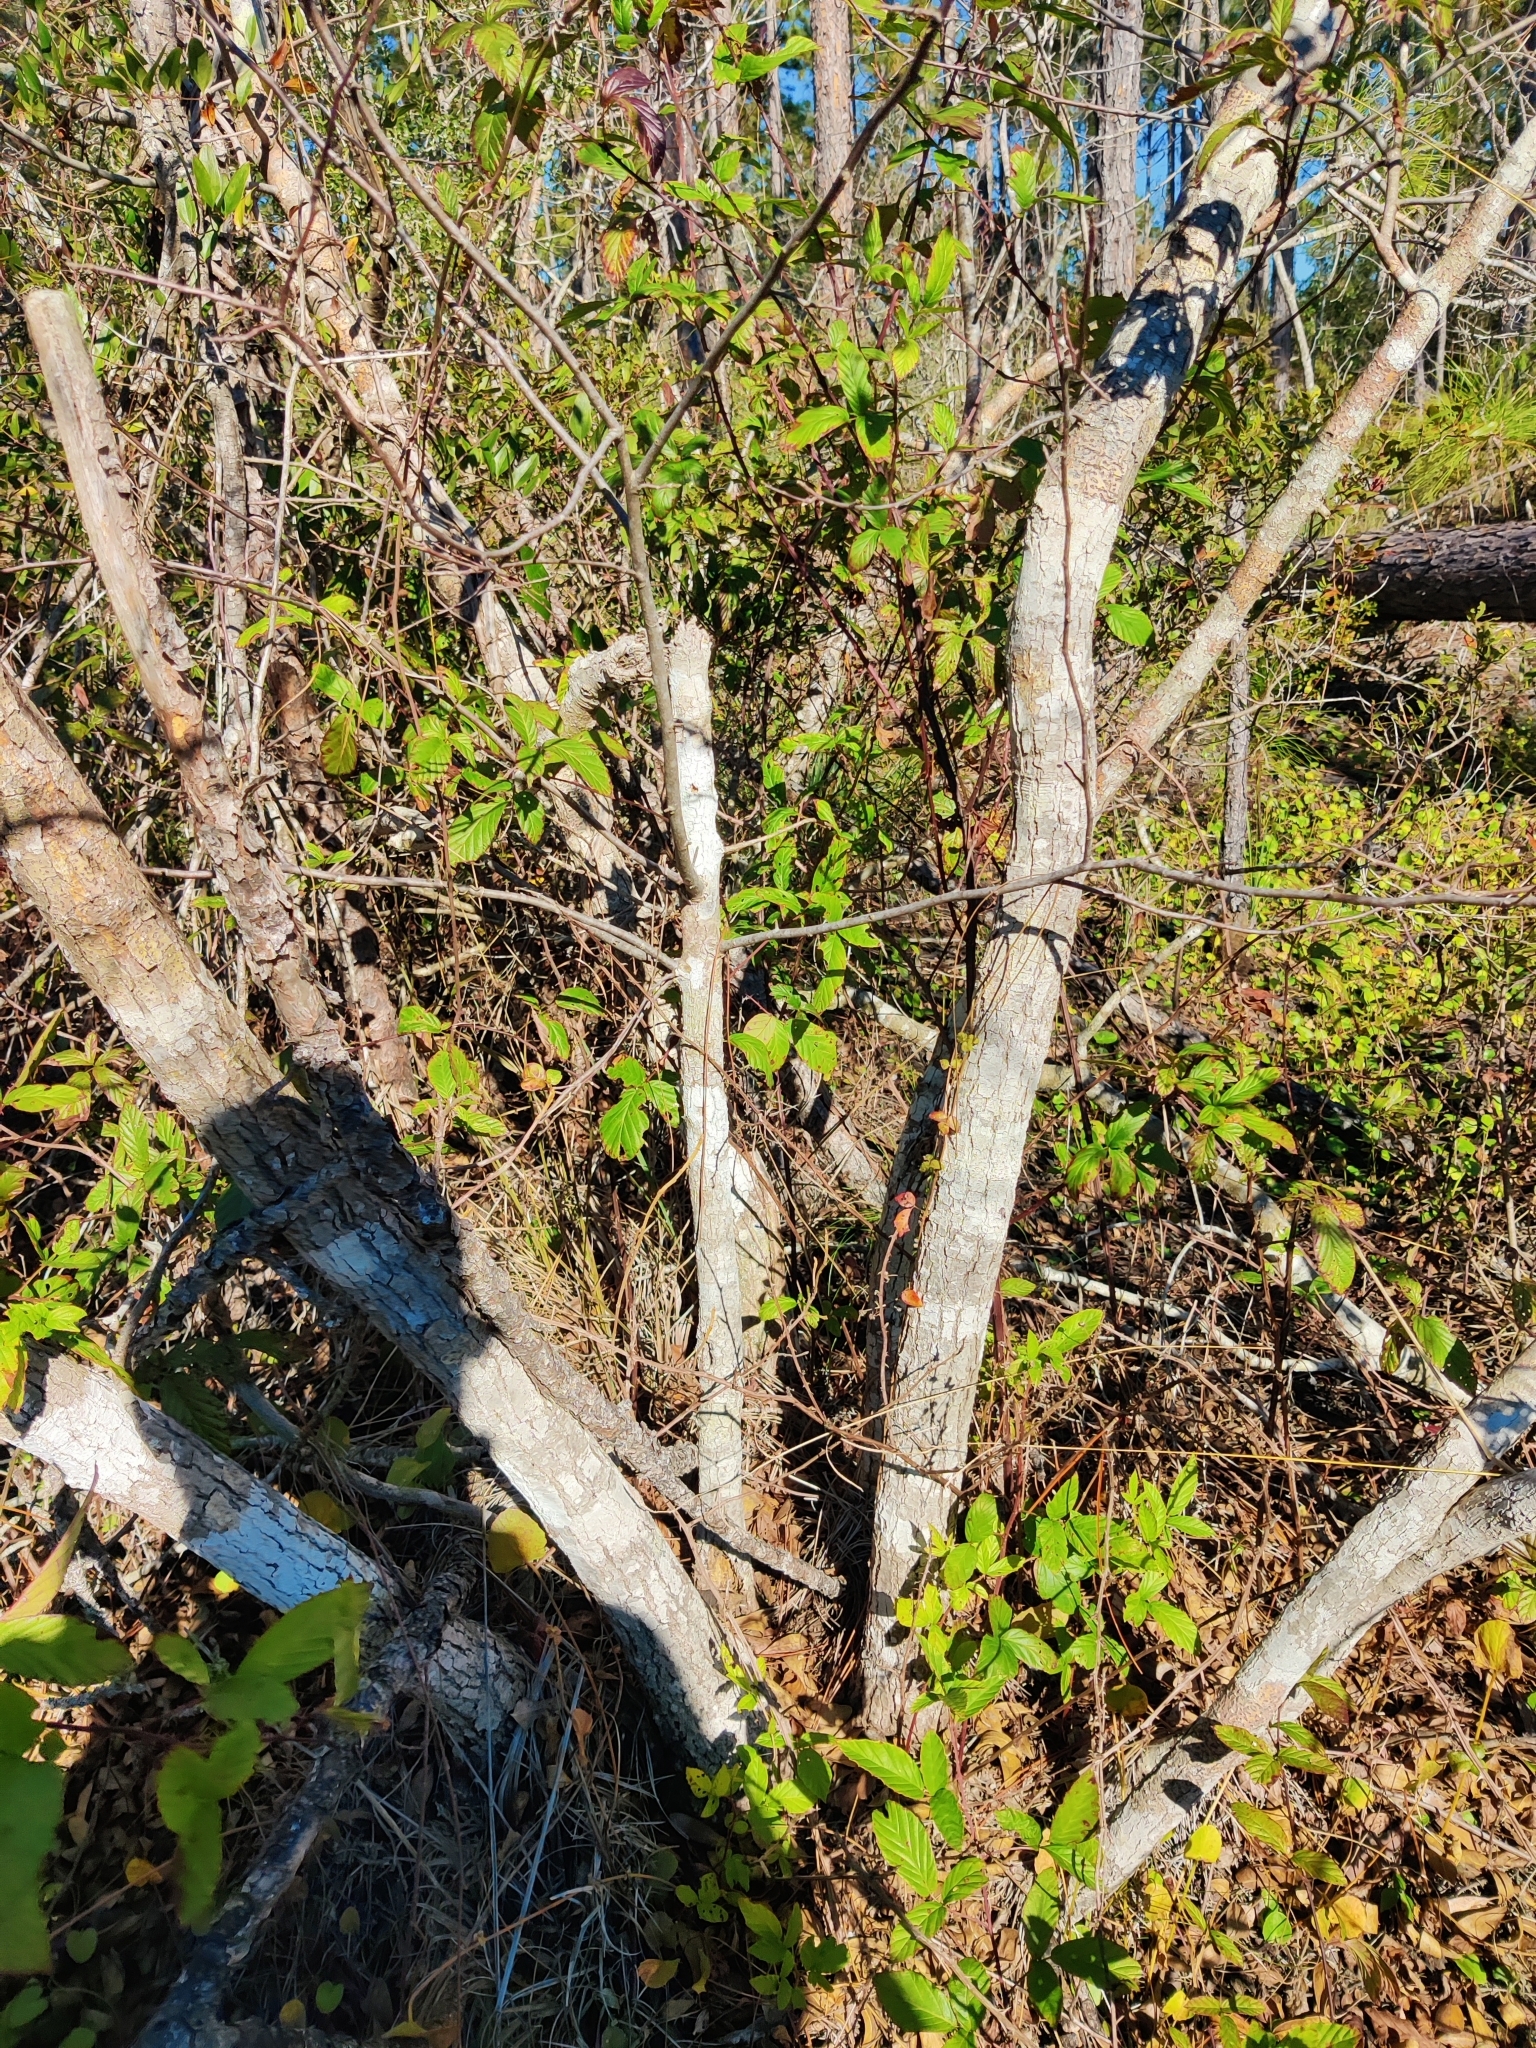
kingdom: Plantae
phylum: Tracheophyta
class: Magnoliopsida
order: Cornales
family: Nyssaceae
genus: Nyssa
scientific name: Nyssa biflora
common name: Swamp blackgum
